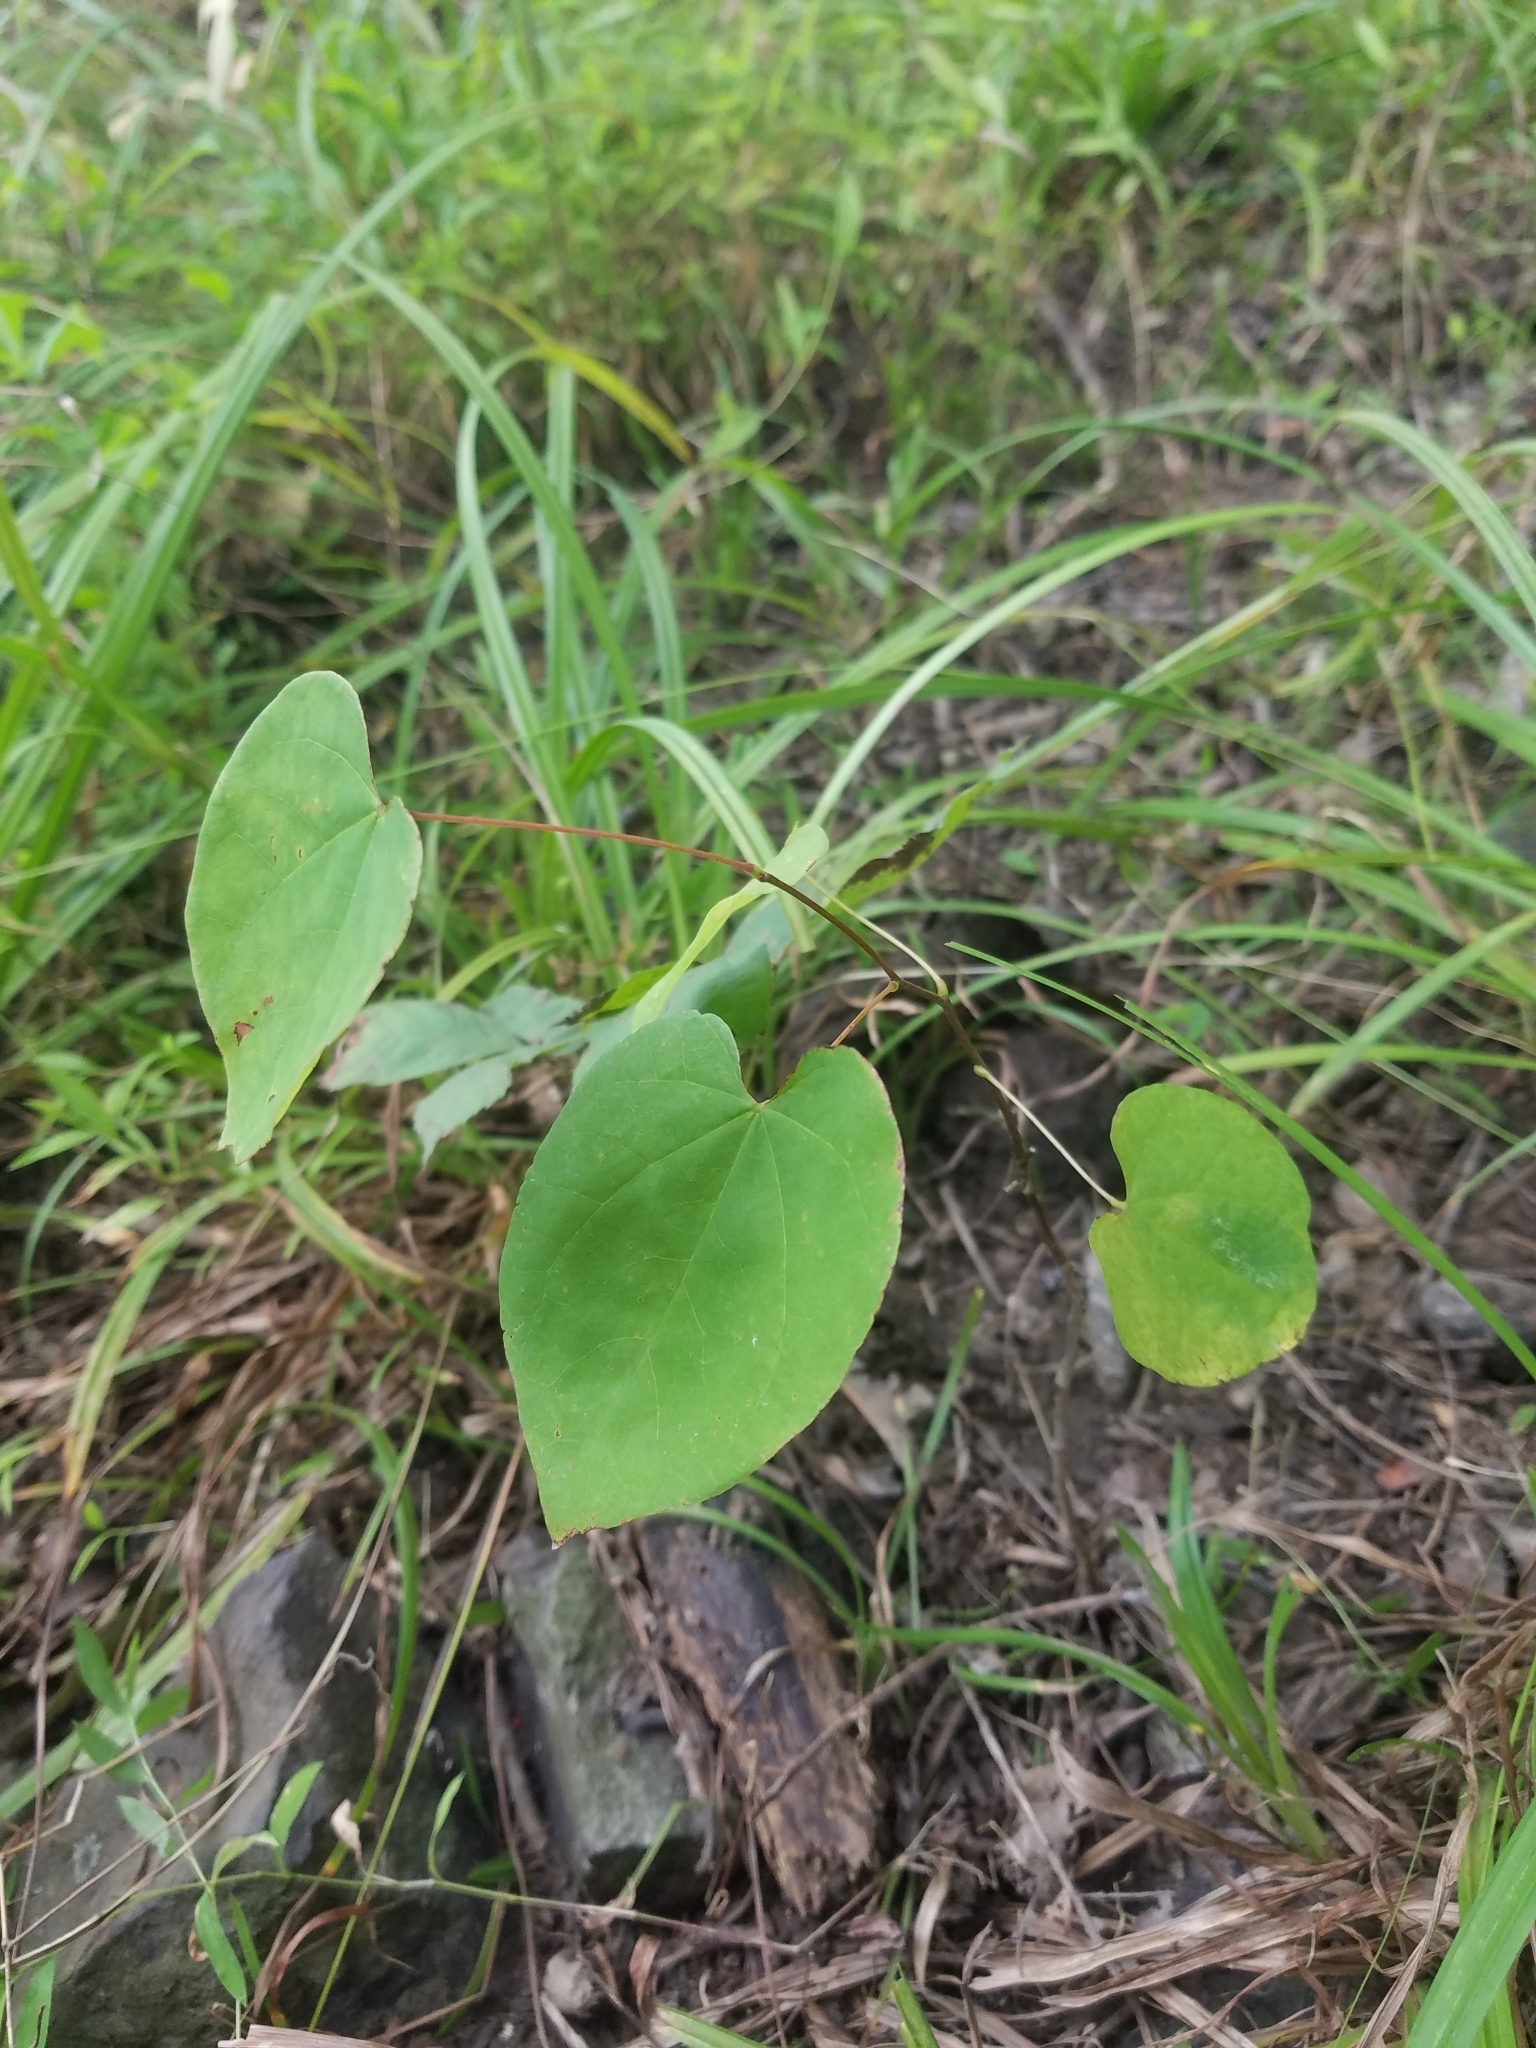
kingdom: Plantae
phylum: Tracheophyta
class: Magnoliopsida
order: Fabales
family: Fabaceae
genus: Cercis
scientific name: Cercis canadensis
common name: Eastern redbud
